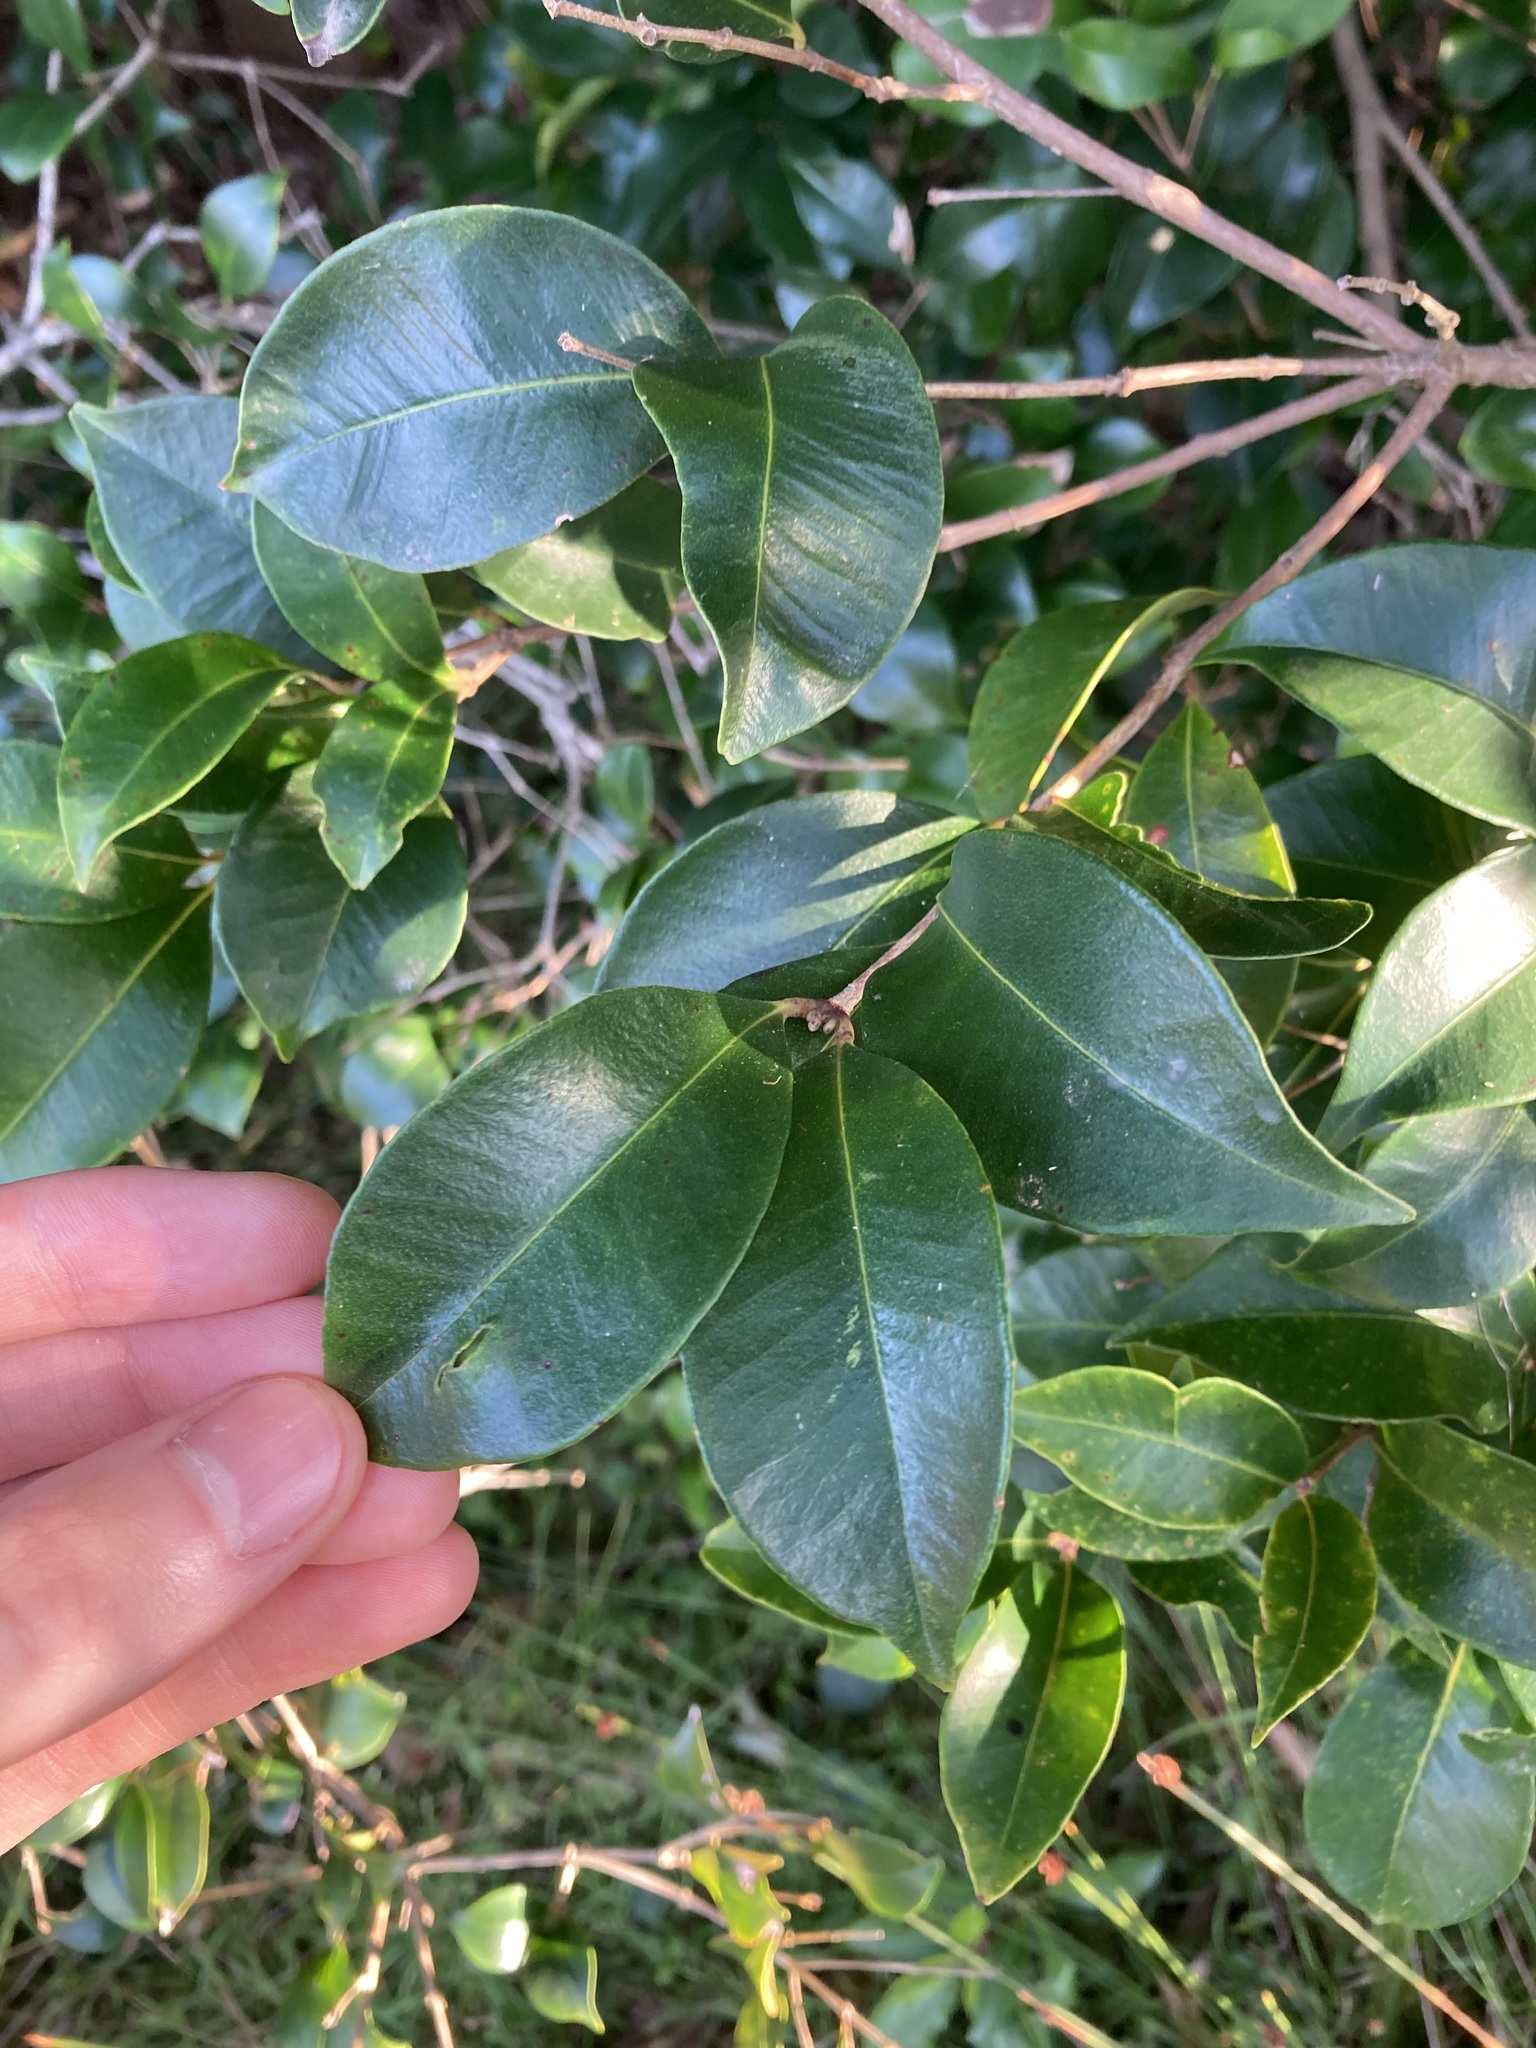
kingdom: Plantae
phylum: Tracheophyta
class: Magnoliopsida
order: Myrtales
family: Myrtaceae
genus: Syzygium
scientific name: Syzygium smithii
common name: Lilly-pilly
